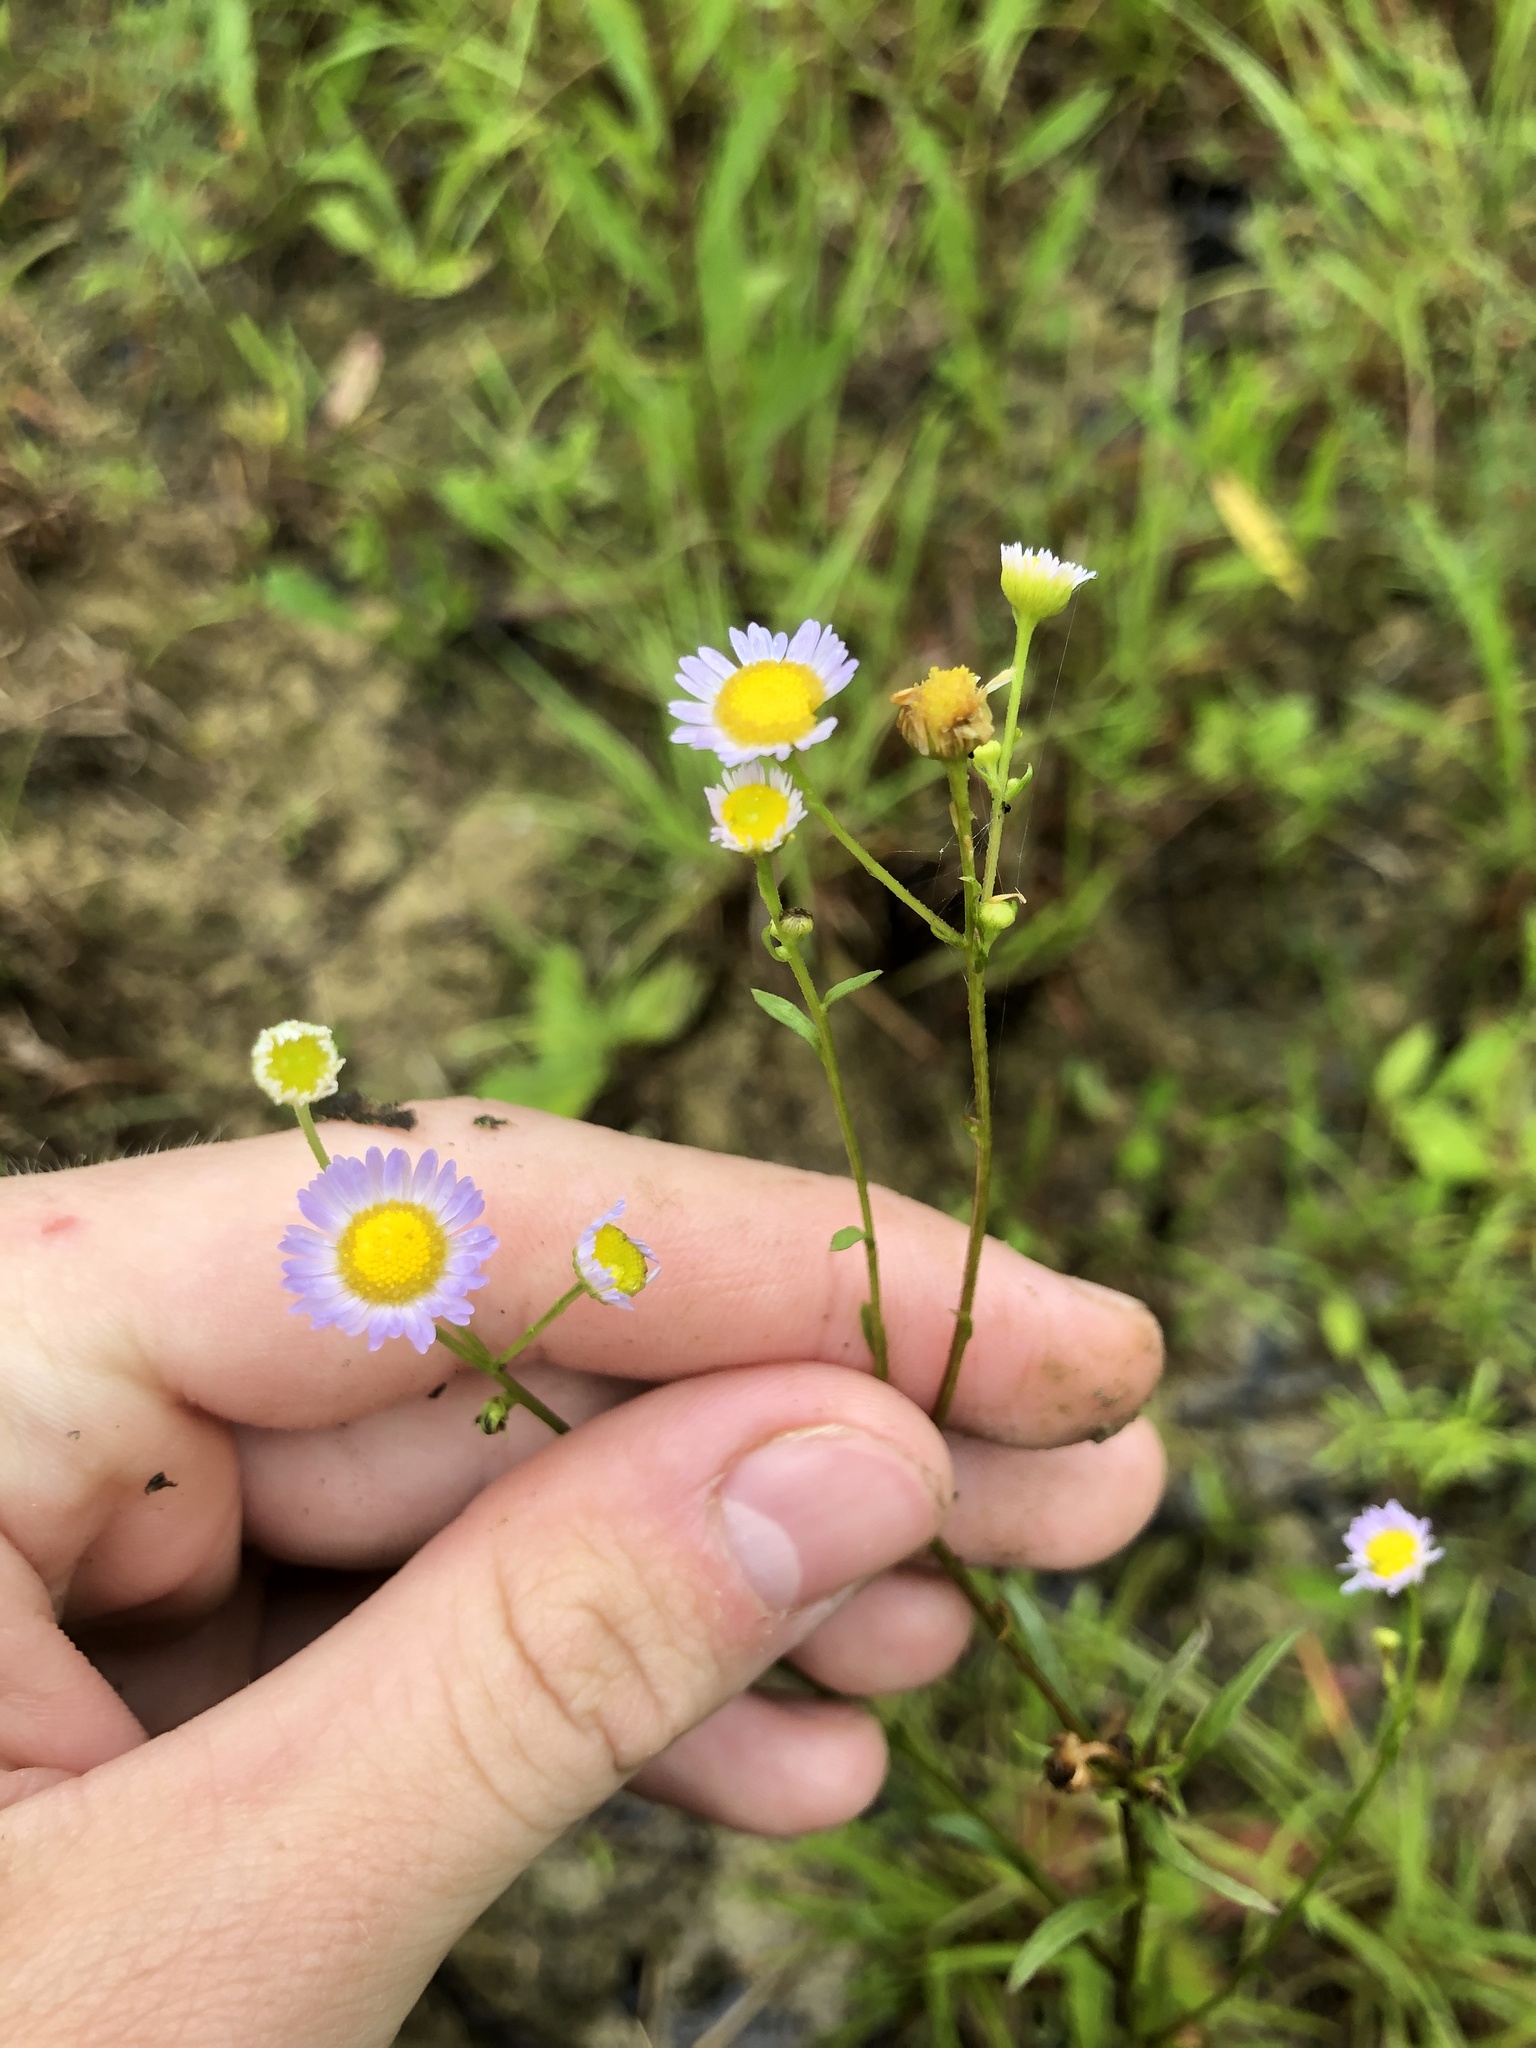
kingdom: Plantae
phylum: Tracheophyta
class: Magnoliopsida
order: Asterales
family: Asteraceae
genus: Erigeron
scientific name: Erigeron tenuis
